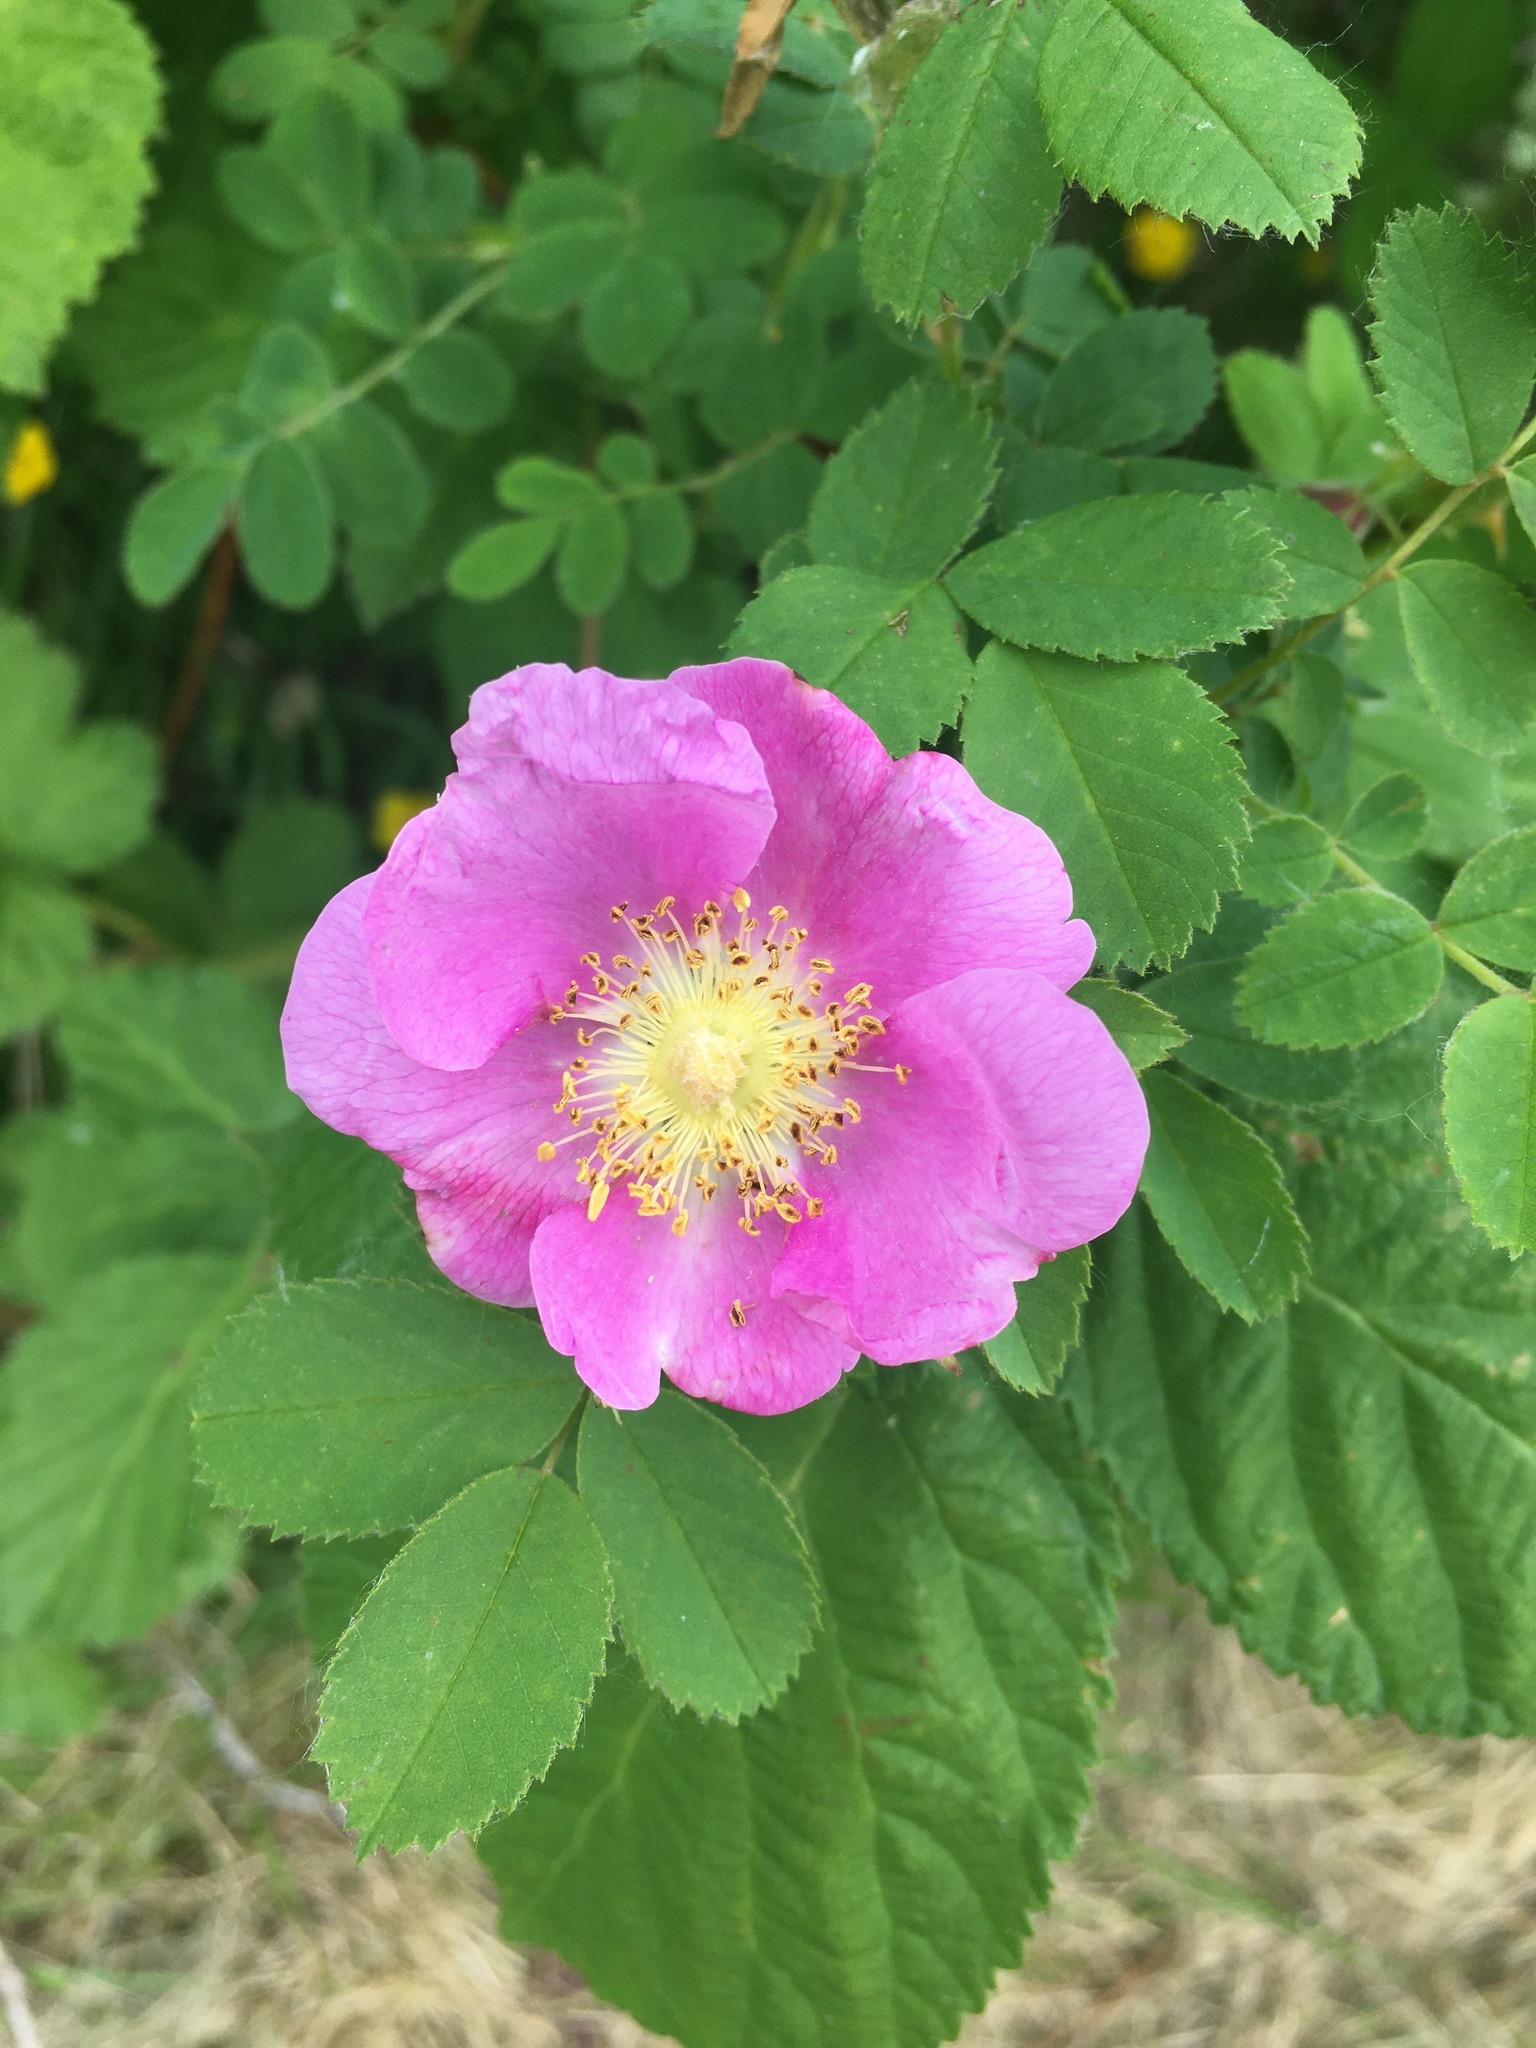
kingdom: Plantae
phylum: Tracheophyta
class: Magnoliopsida
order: Rosales
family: Rosaceae
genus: Rosa
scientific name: Rosa nutkana
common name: Nootka rose
